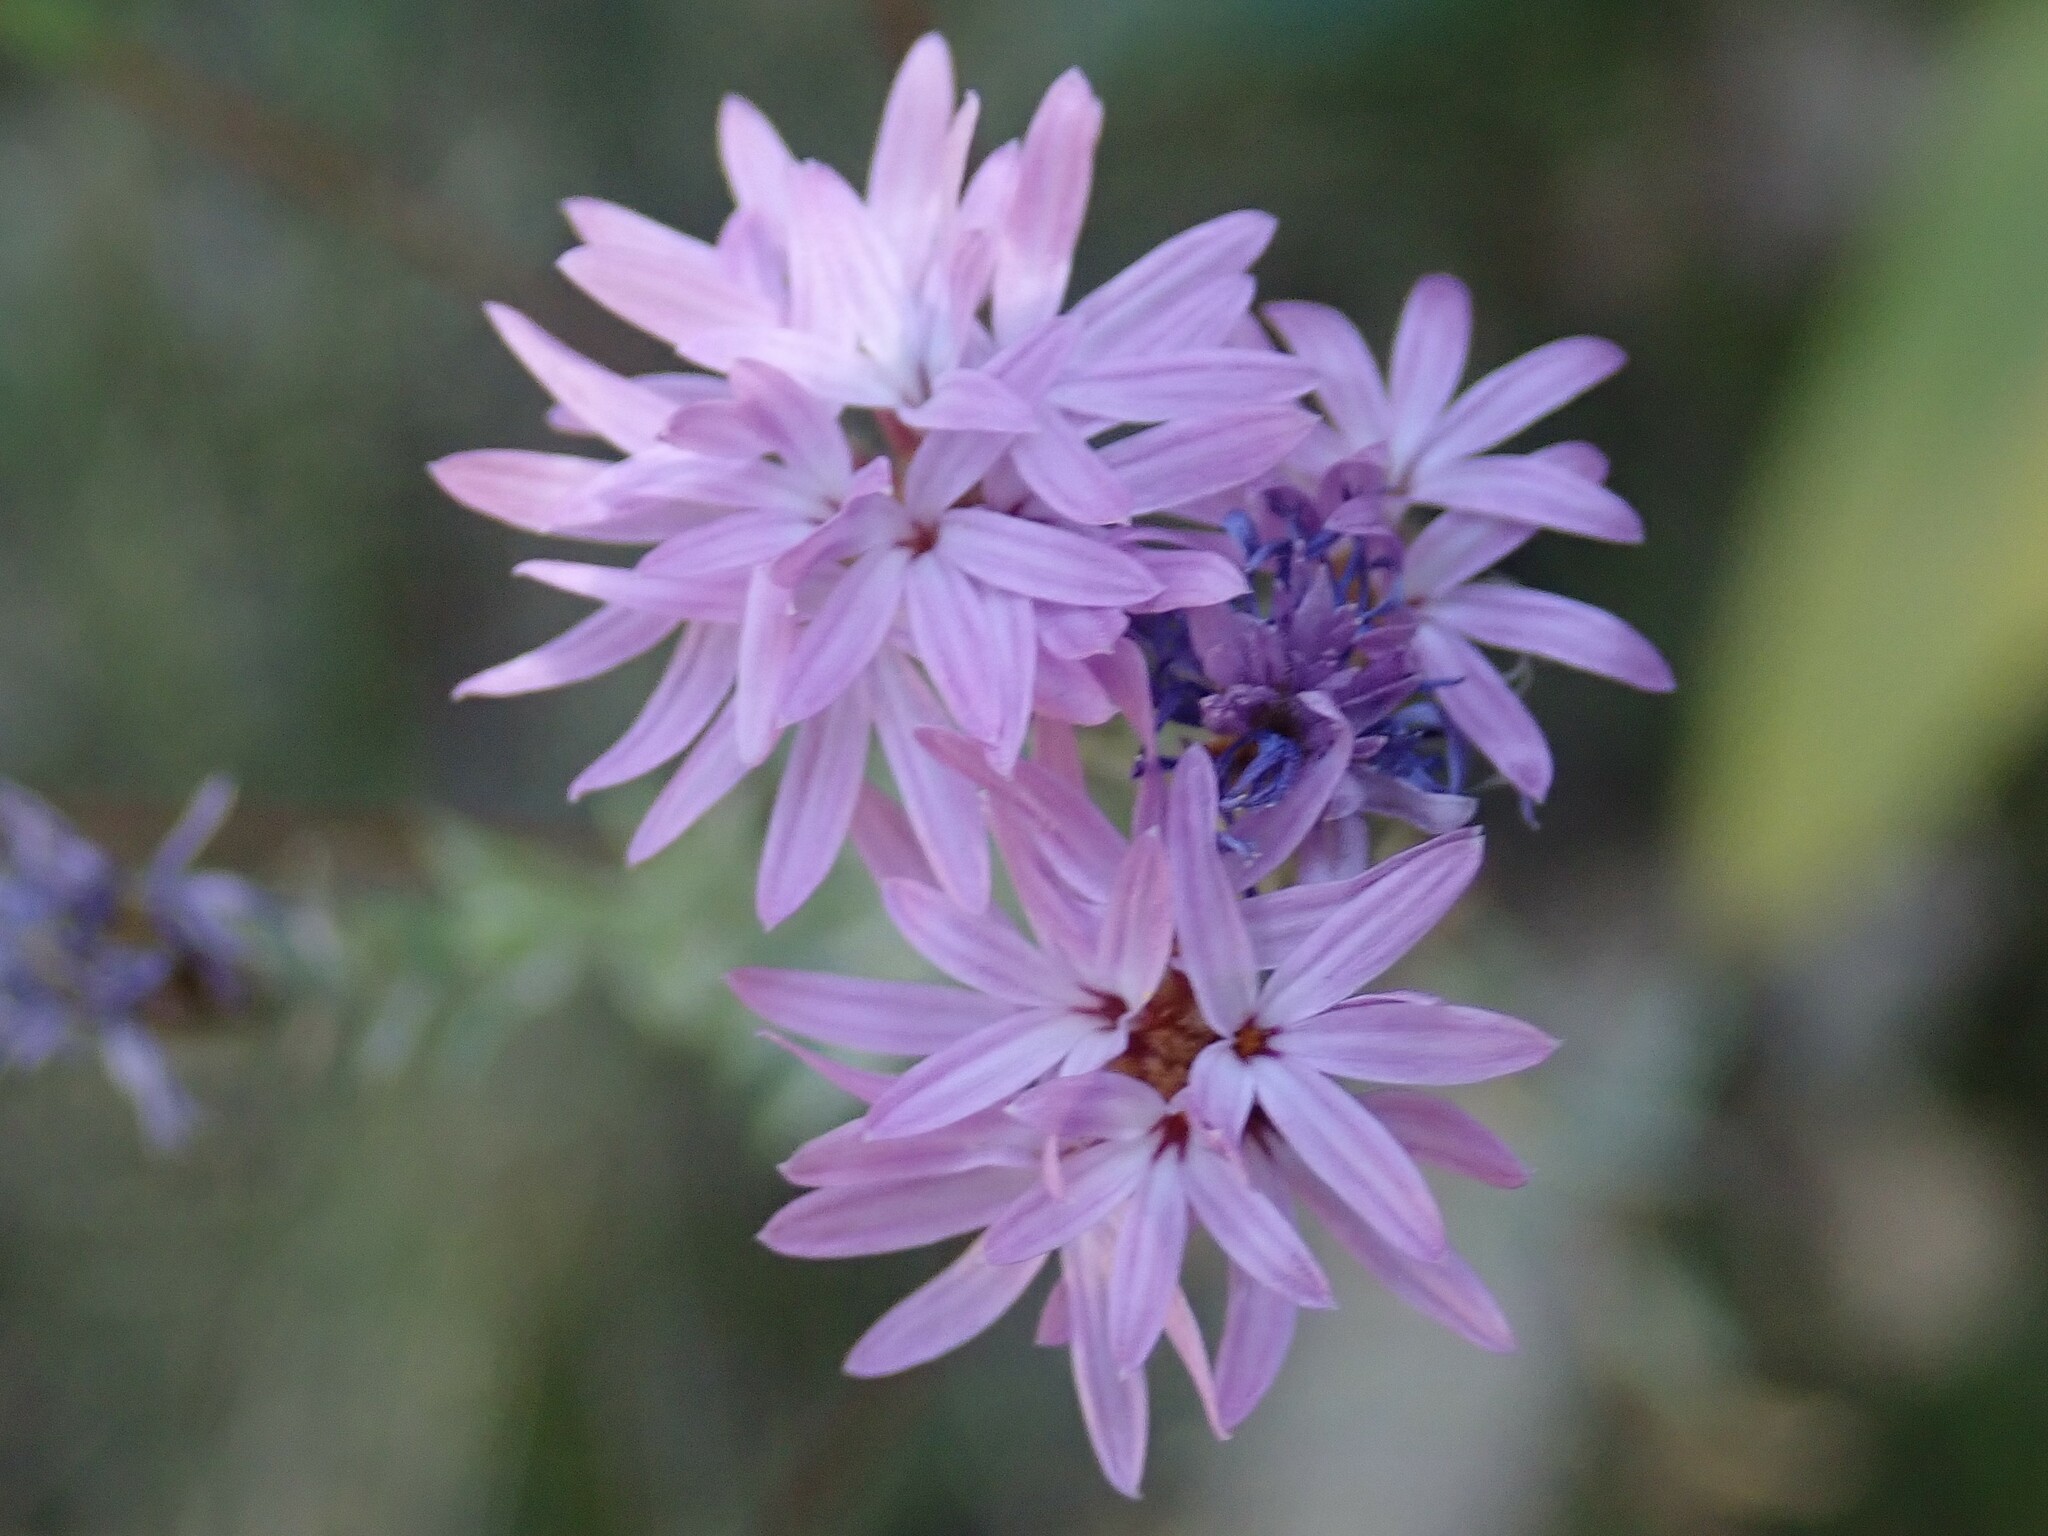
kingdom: Plantae
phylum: Tracheophyta
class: Magnoliopsida
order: Asterales
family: Asteraceae
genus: Lessingia
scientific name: Lessingia leptoclada
